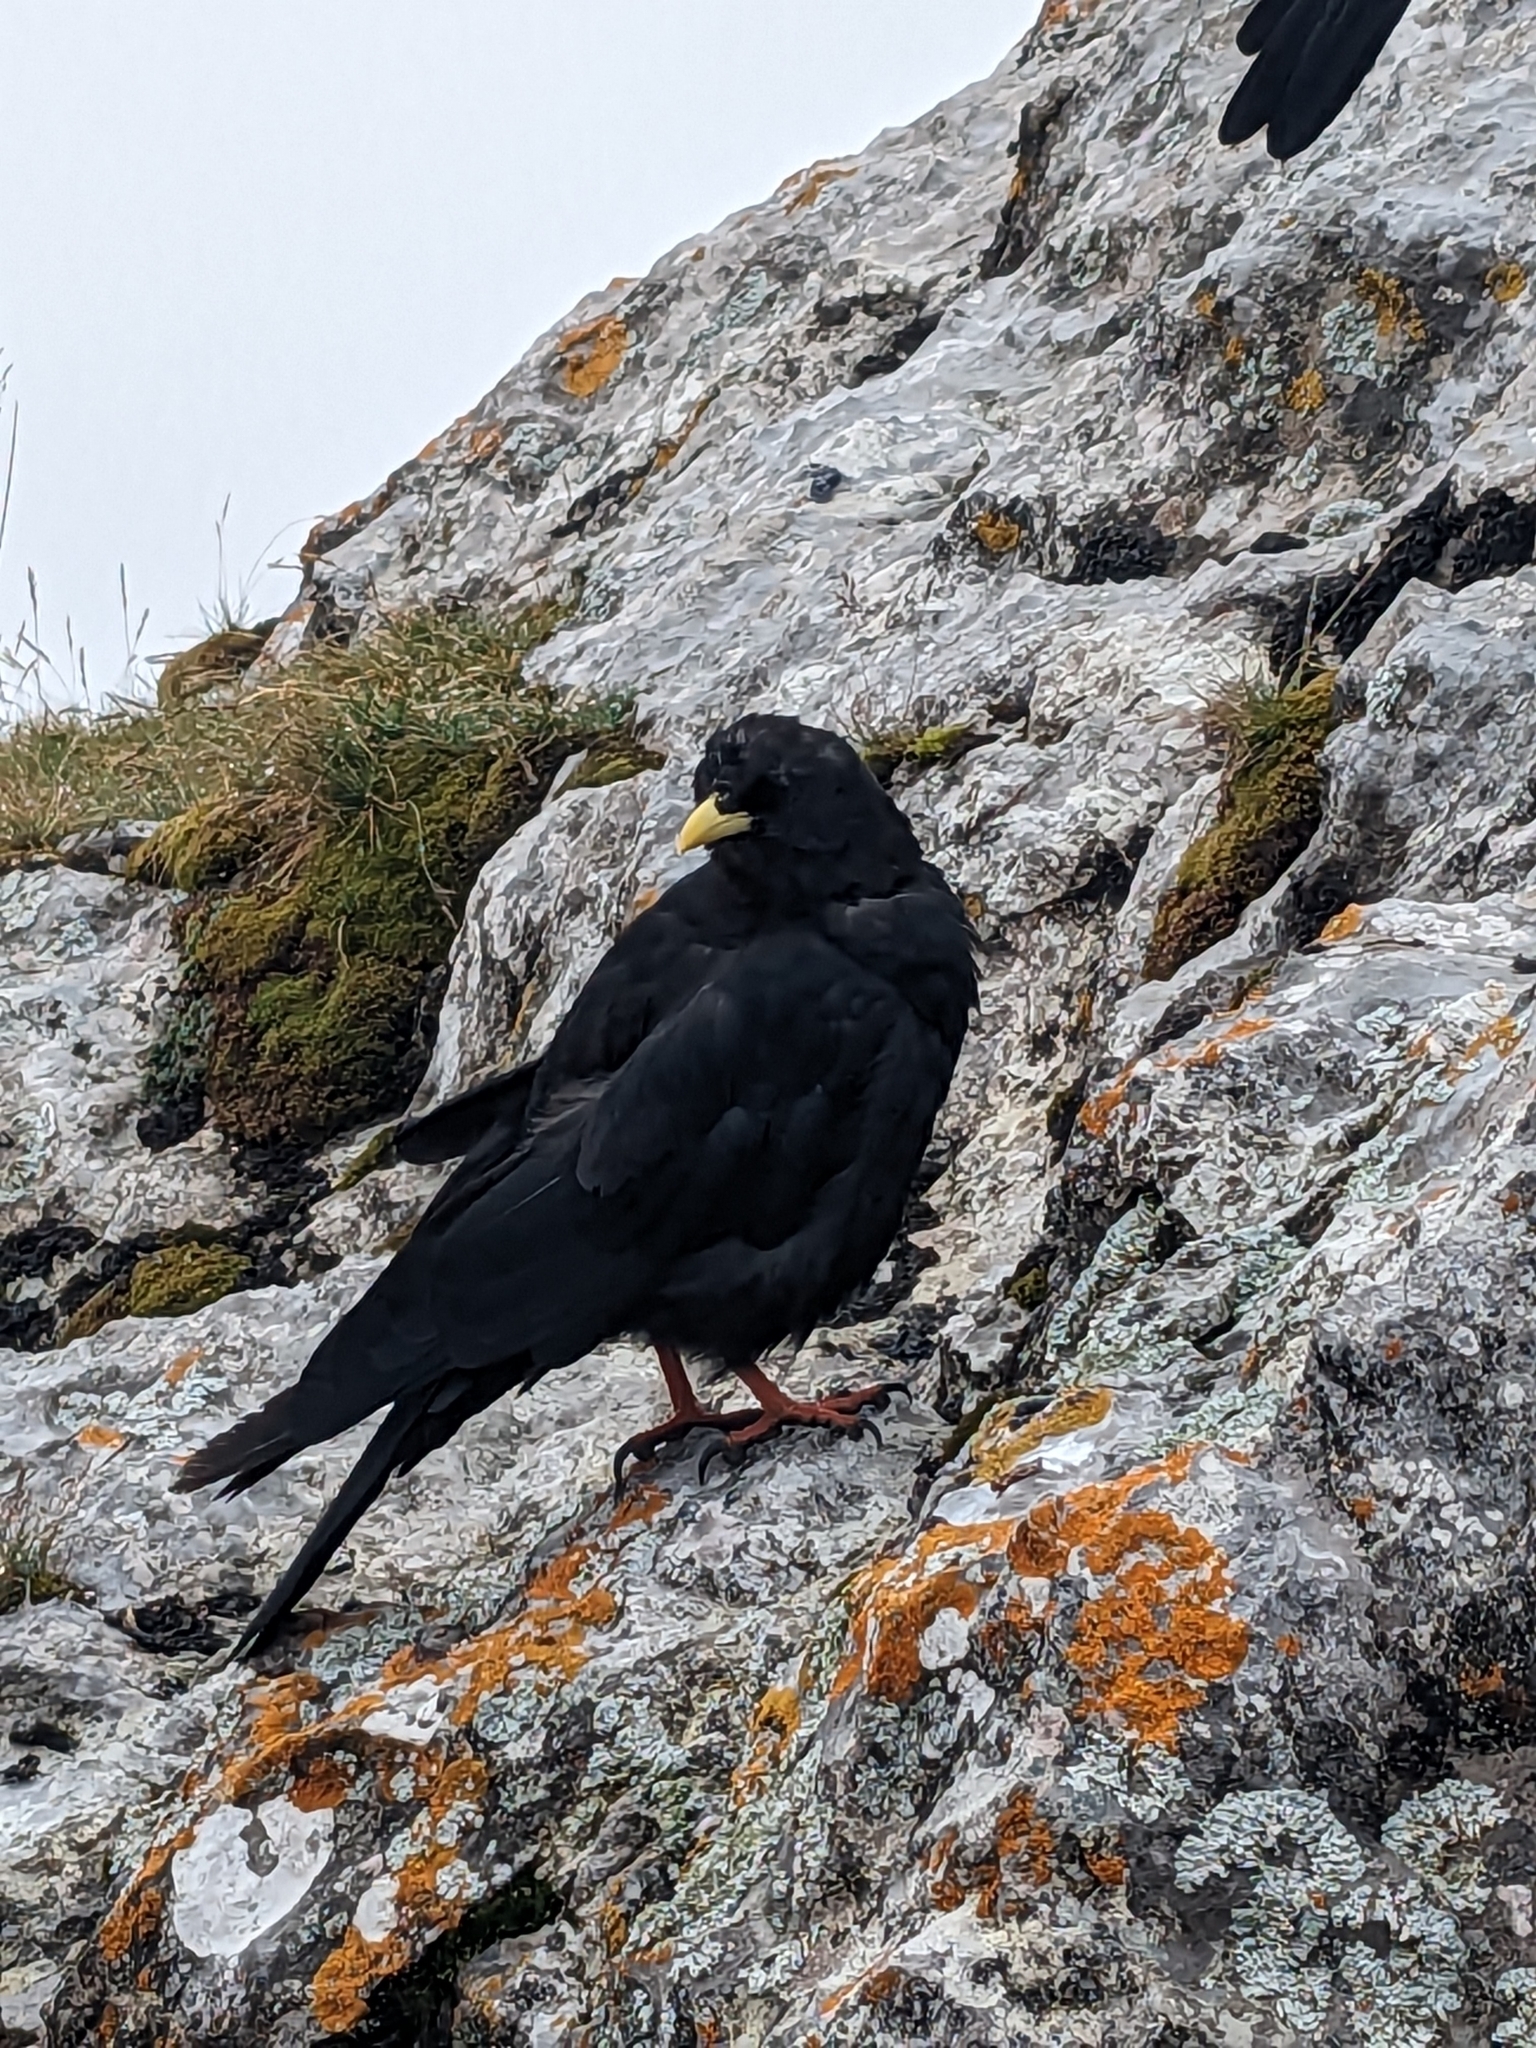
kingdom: Animalia
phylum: Chordata
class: Aves
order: Passeriformes
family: Corvidae
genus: Pyrrhocorax
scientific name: Pyrrhocorax graculus
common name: Alpine chough
